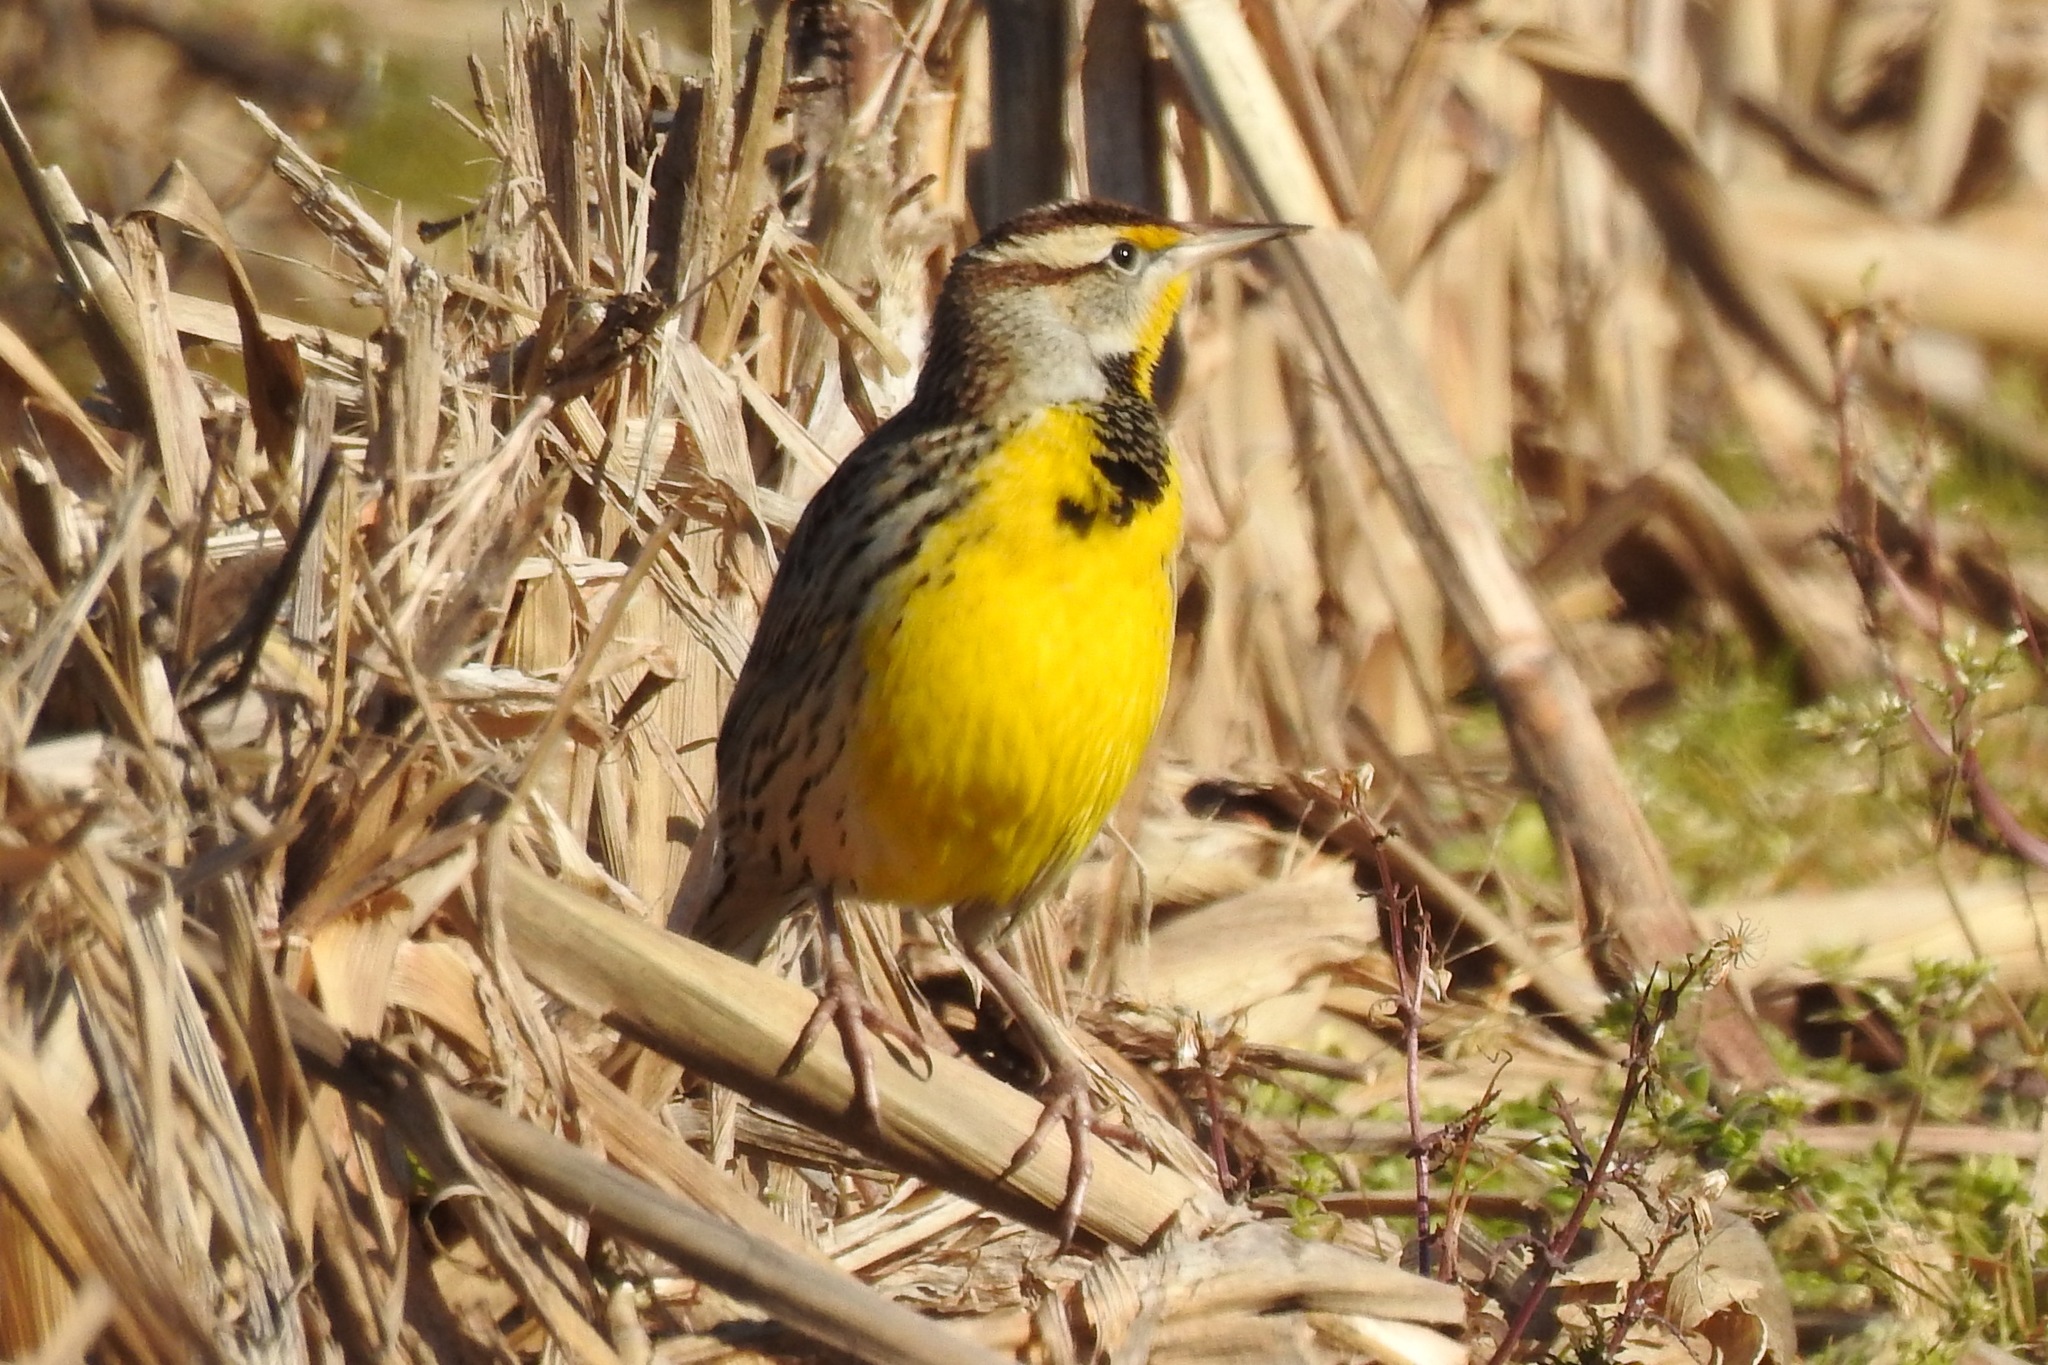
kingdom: Animalia
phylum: Chordata
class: Aves
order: Passeriformes
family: Icteridae
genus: Sturnella
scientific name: Sturnella magna
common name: Eastern meadowlark
